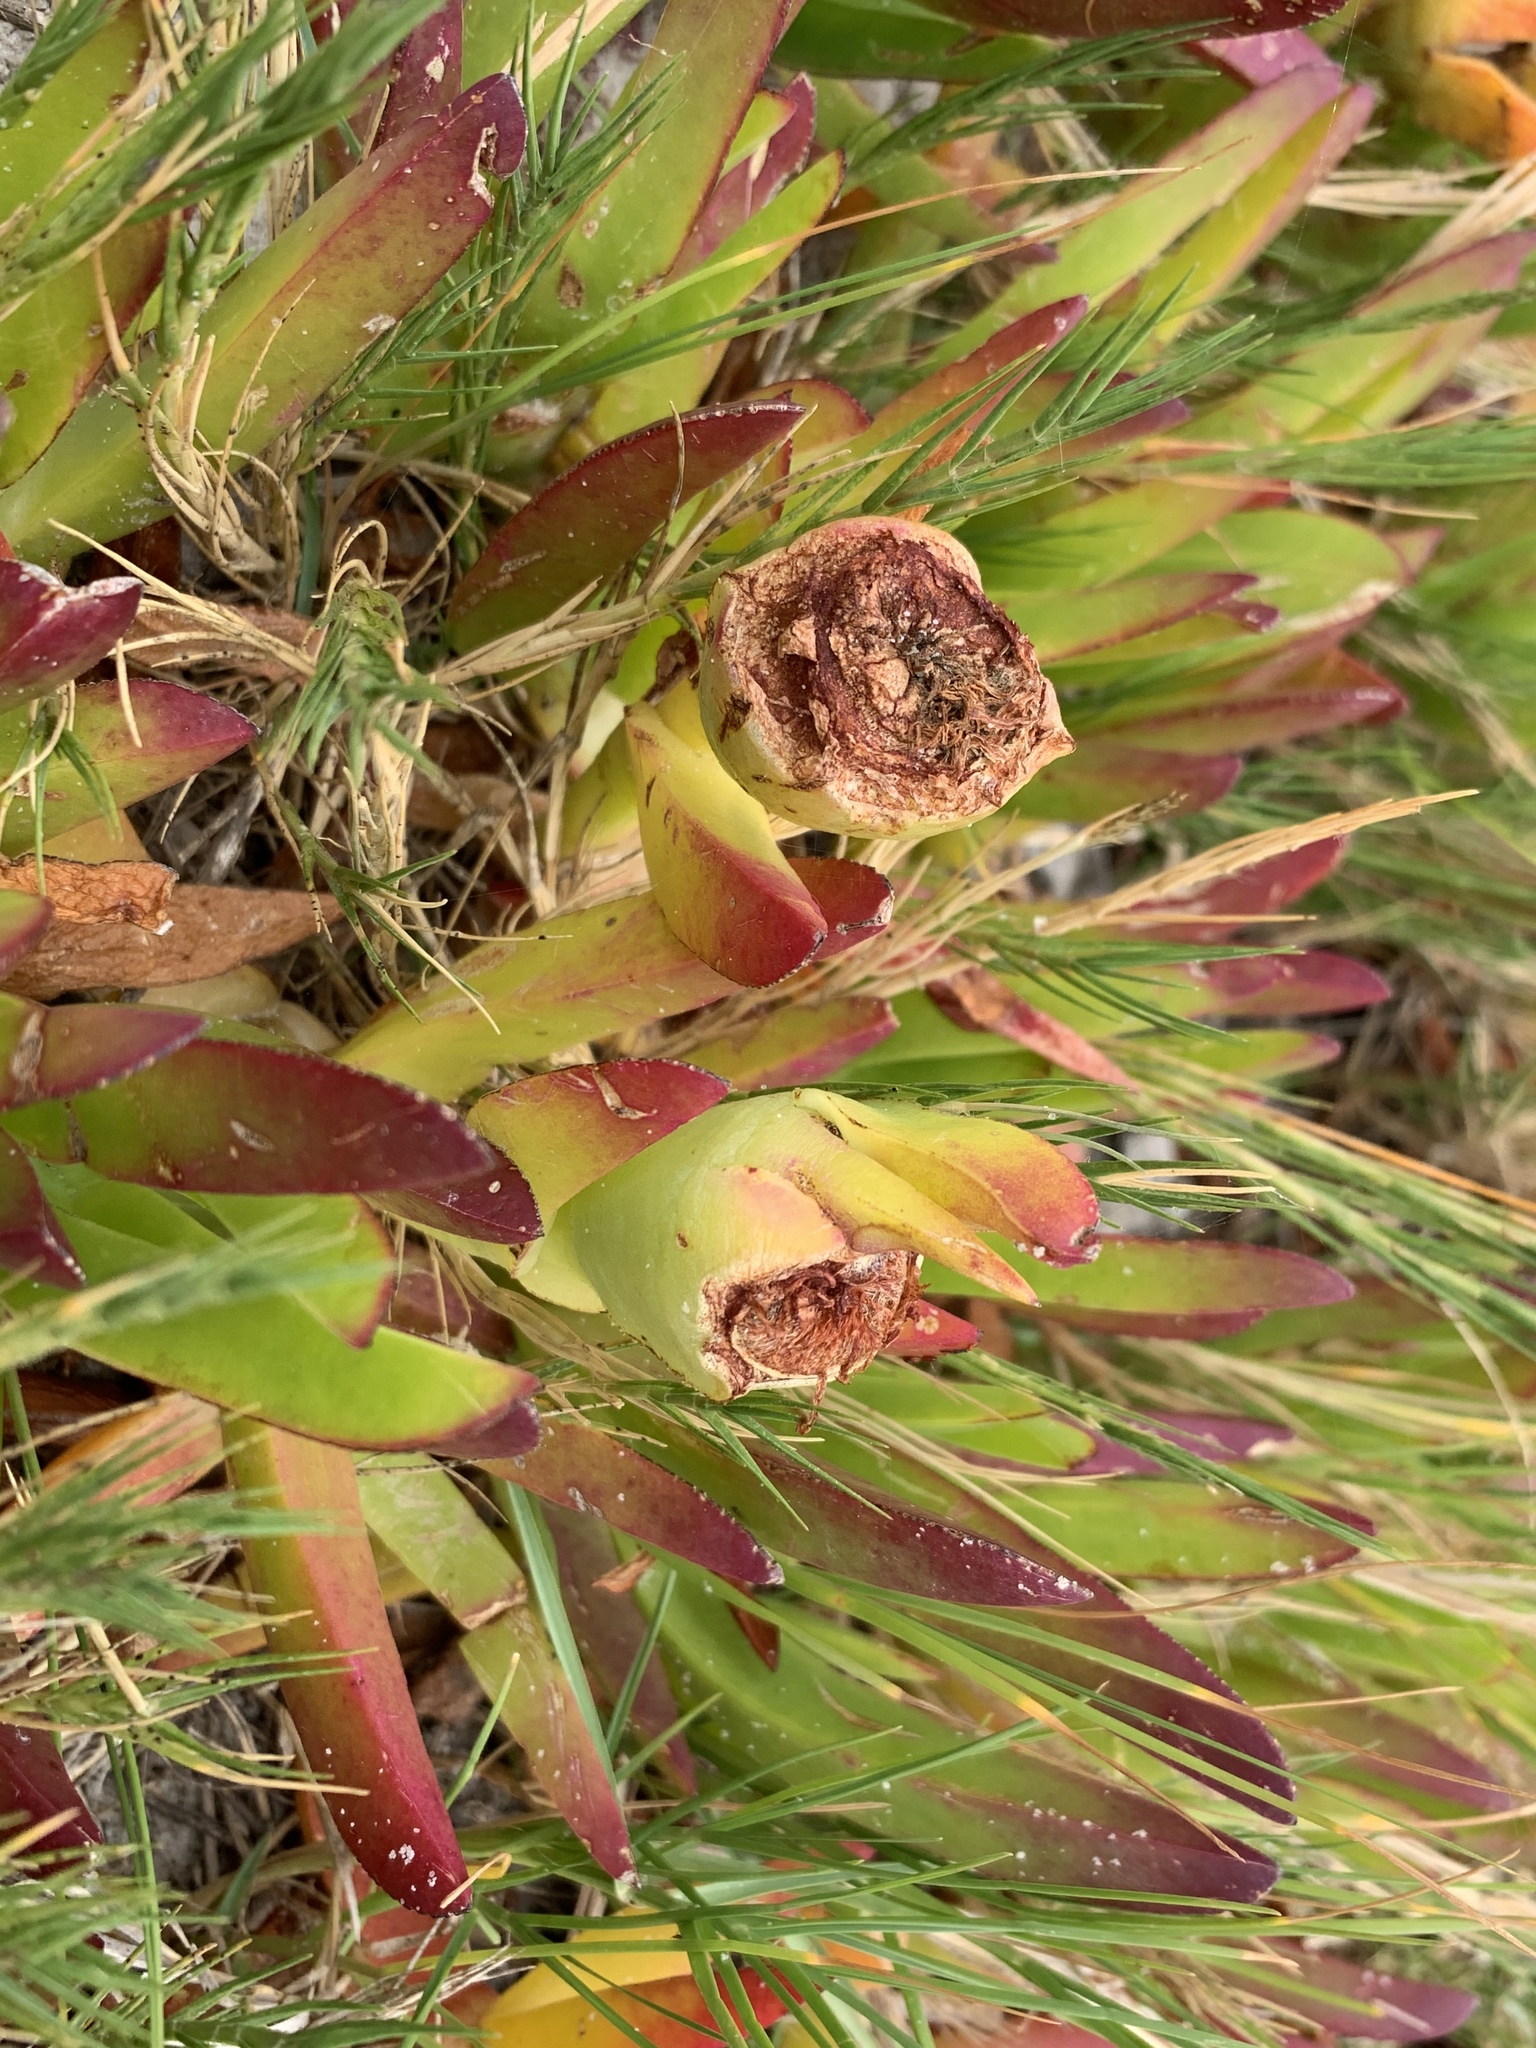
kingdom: Plantae
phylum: Tracheophyta
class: Magnoliopsida
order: Caryophyllales
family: Aizoaceae
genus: Carpobrotus
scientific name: Carpobrotus edulis
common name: Hottentot-fig
